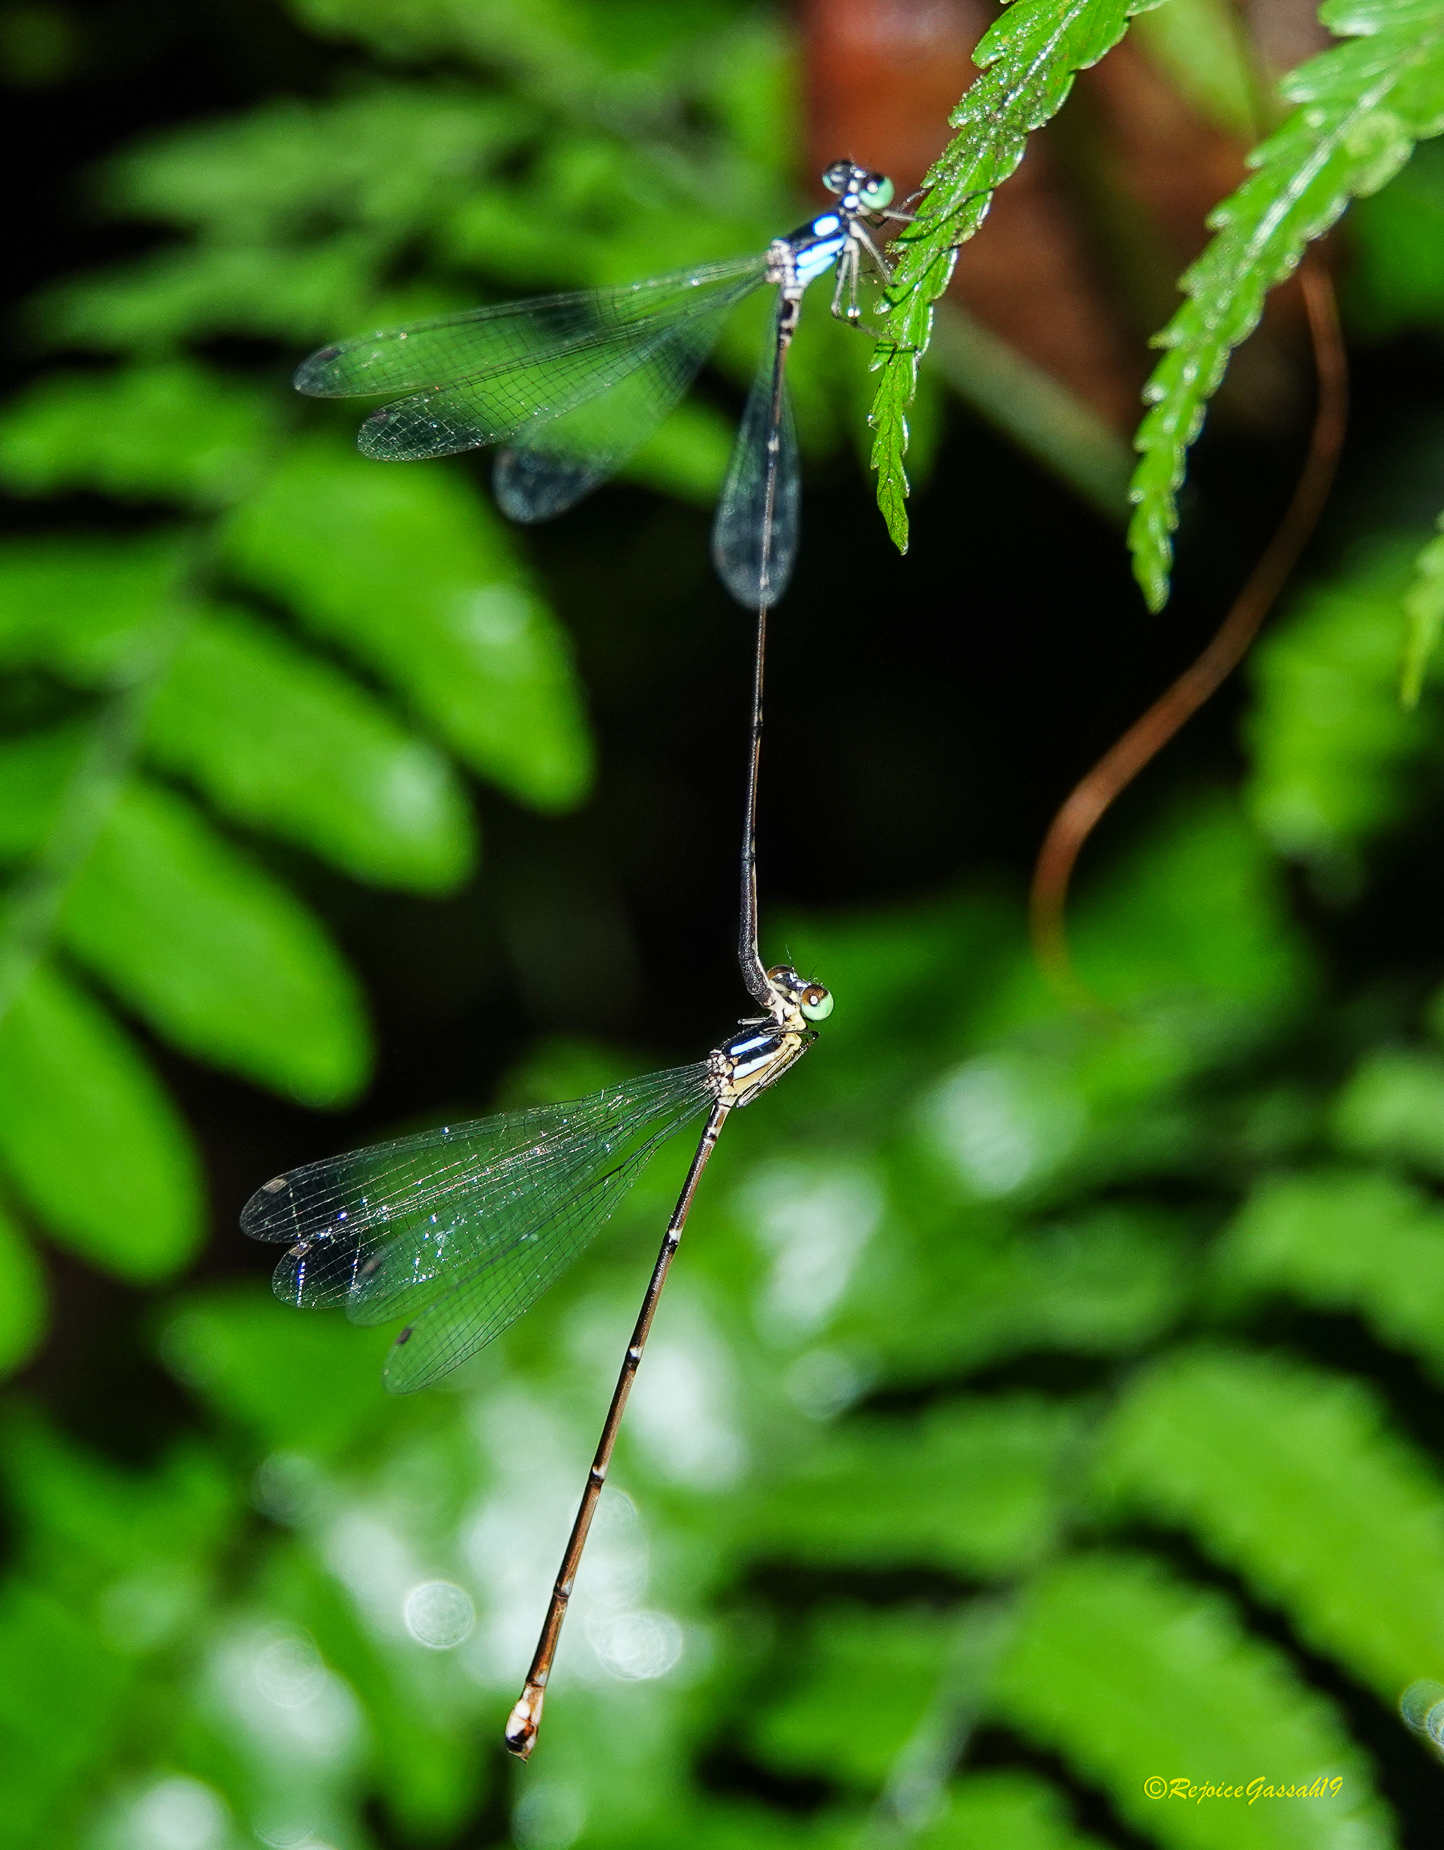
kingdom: Animalia
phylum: Arthropoda
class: Insecta
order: Odonata
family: Platycnemididae
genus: Coeliccia
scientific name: Coeliccia bimaculata
